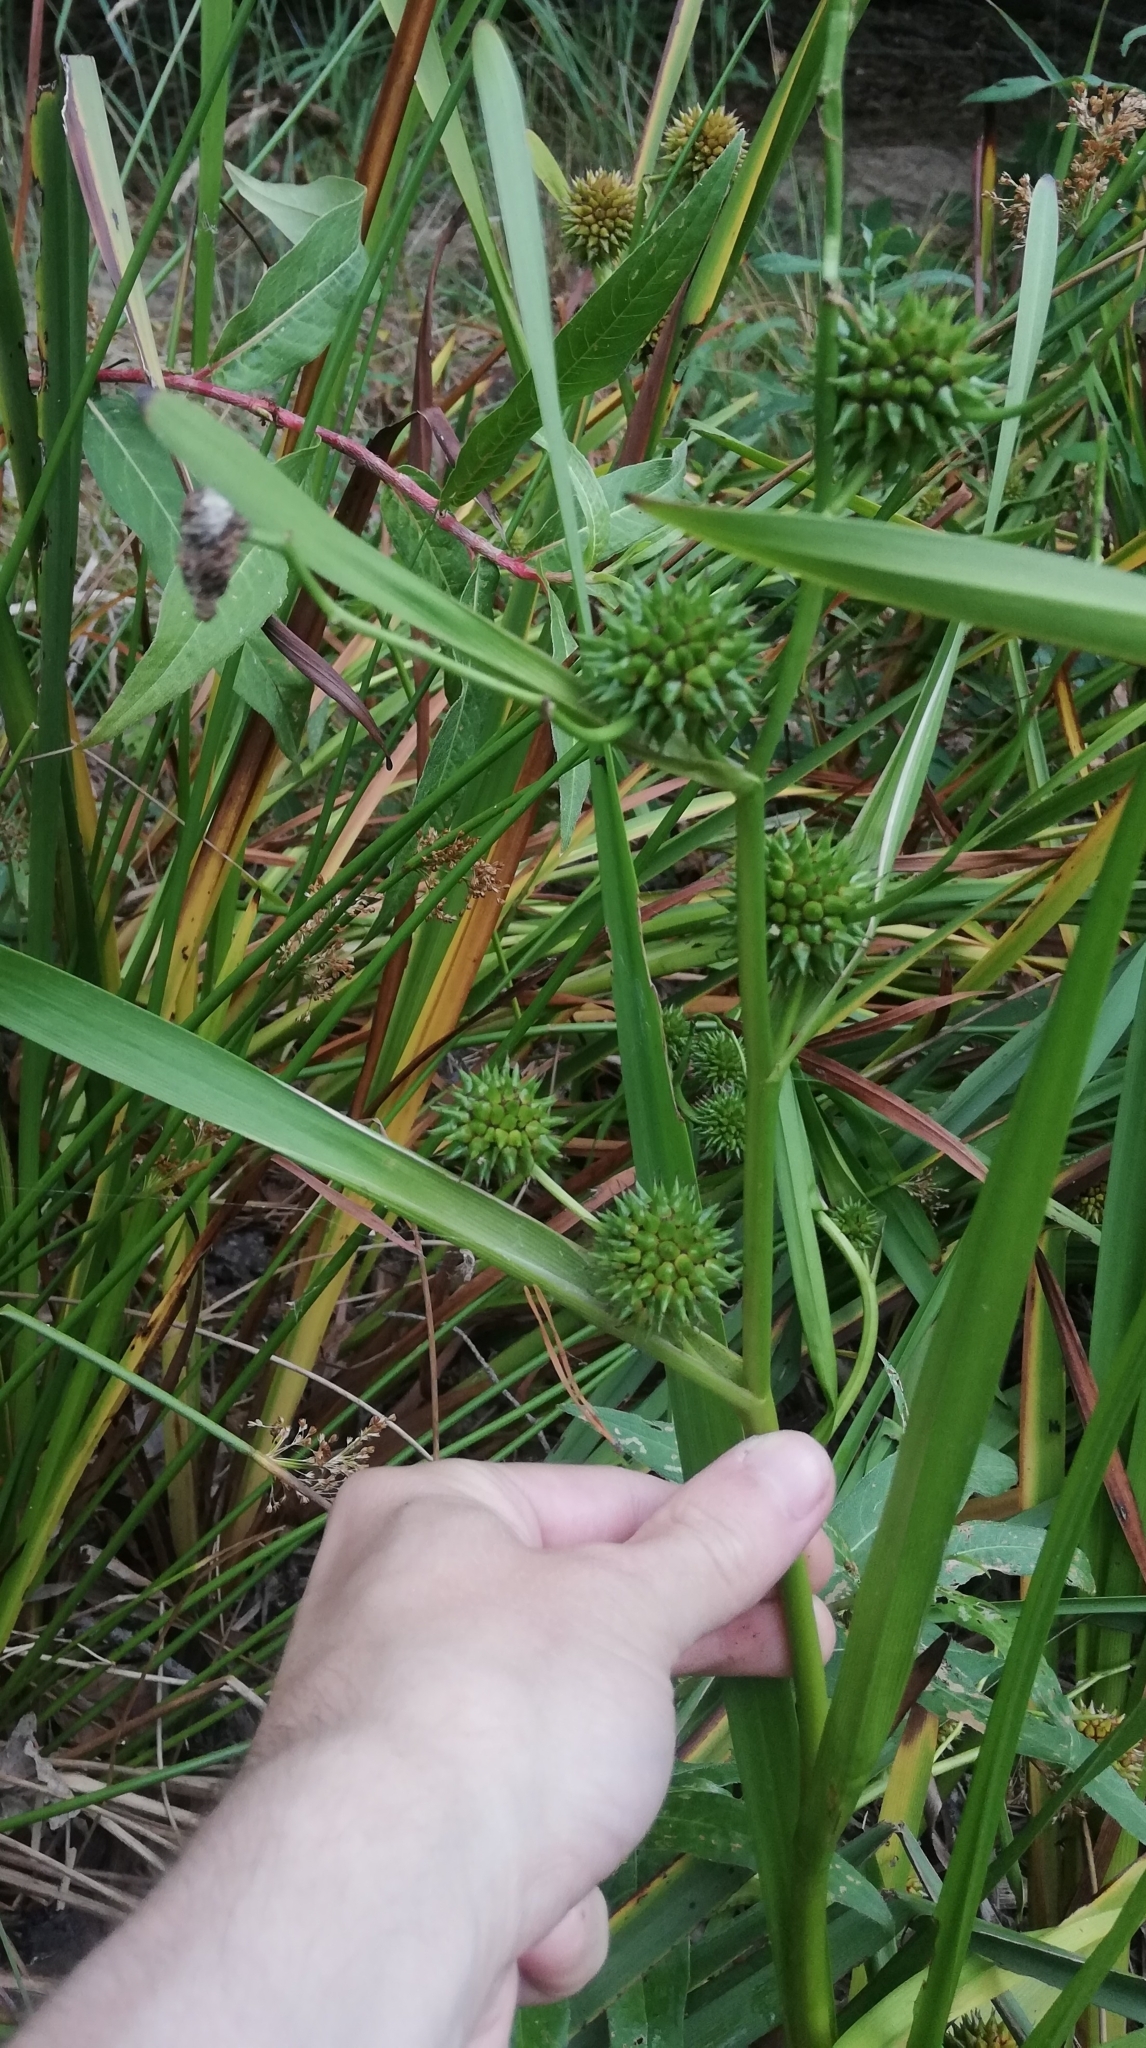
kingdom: Plantae
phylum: Tracheophyta
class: Liliopsida
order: Poales
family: Typhaceae
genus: Sparganium
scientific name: Sparganium erectum
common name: Branched bur-reed
